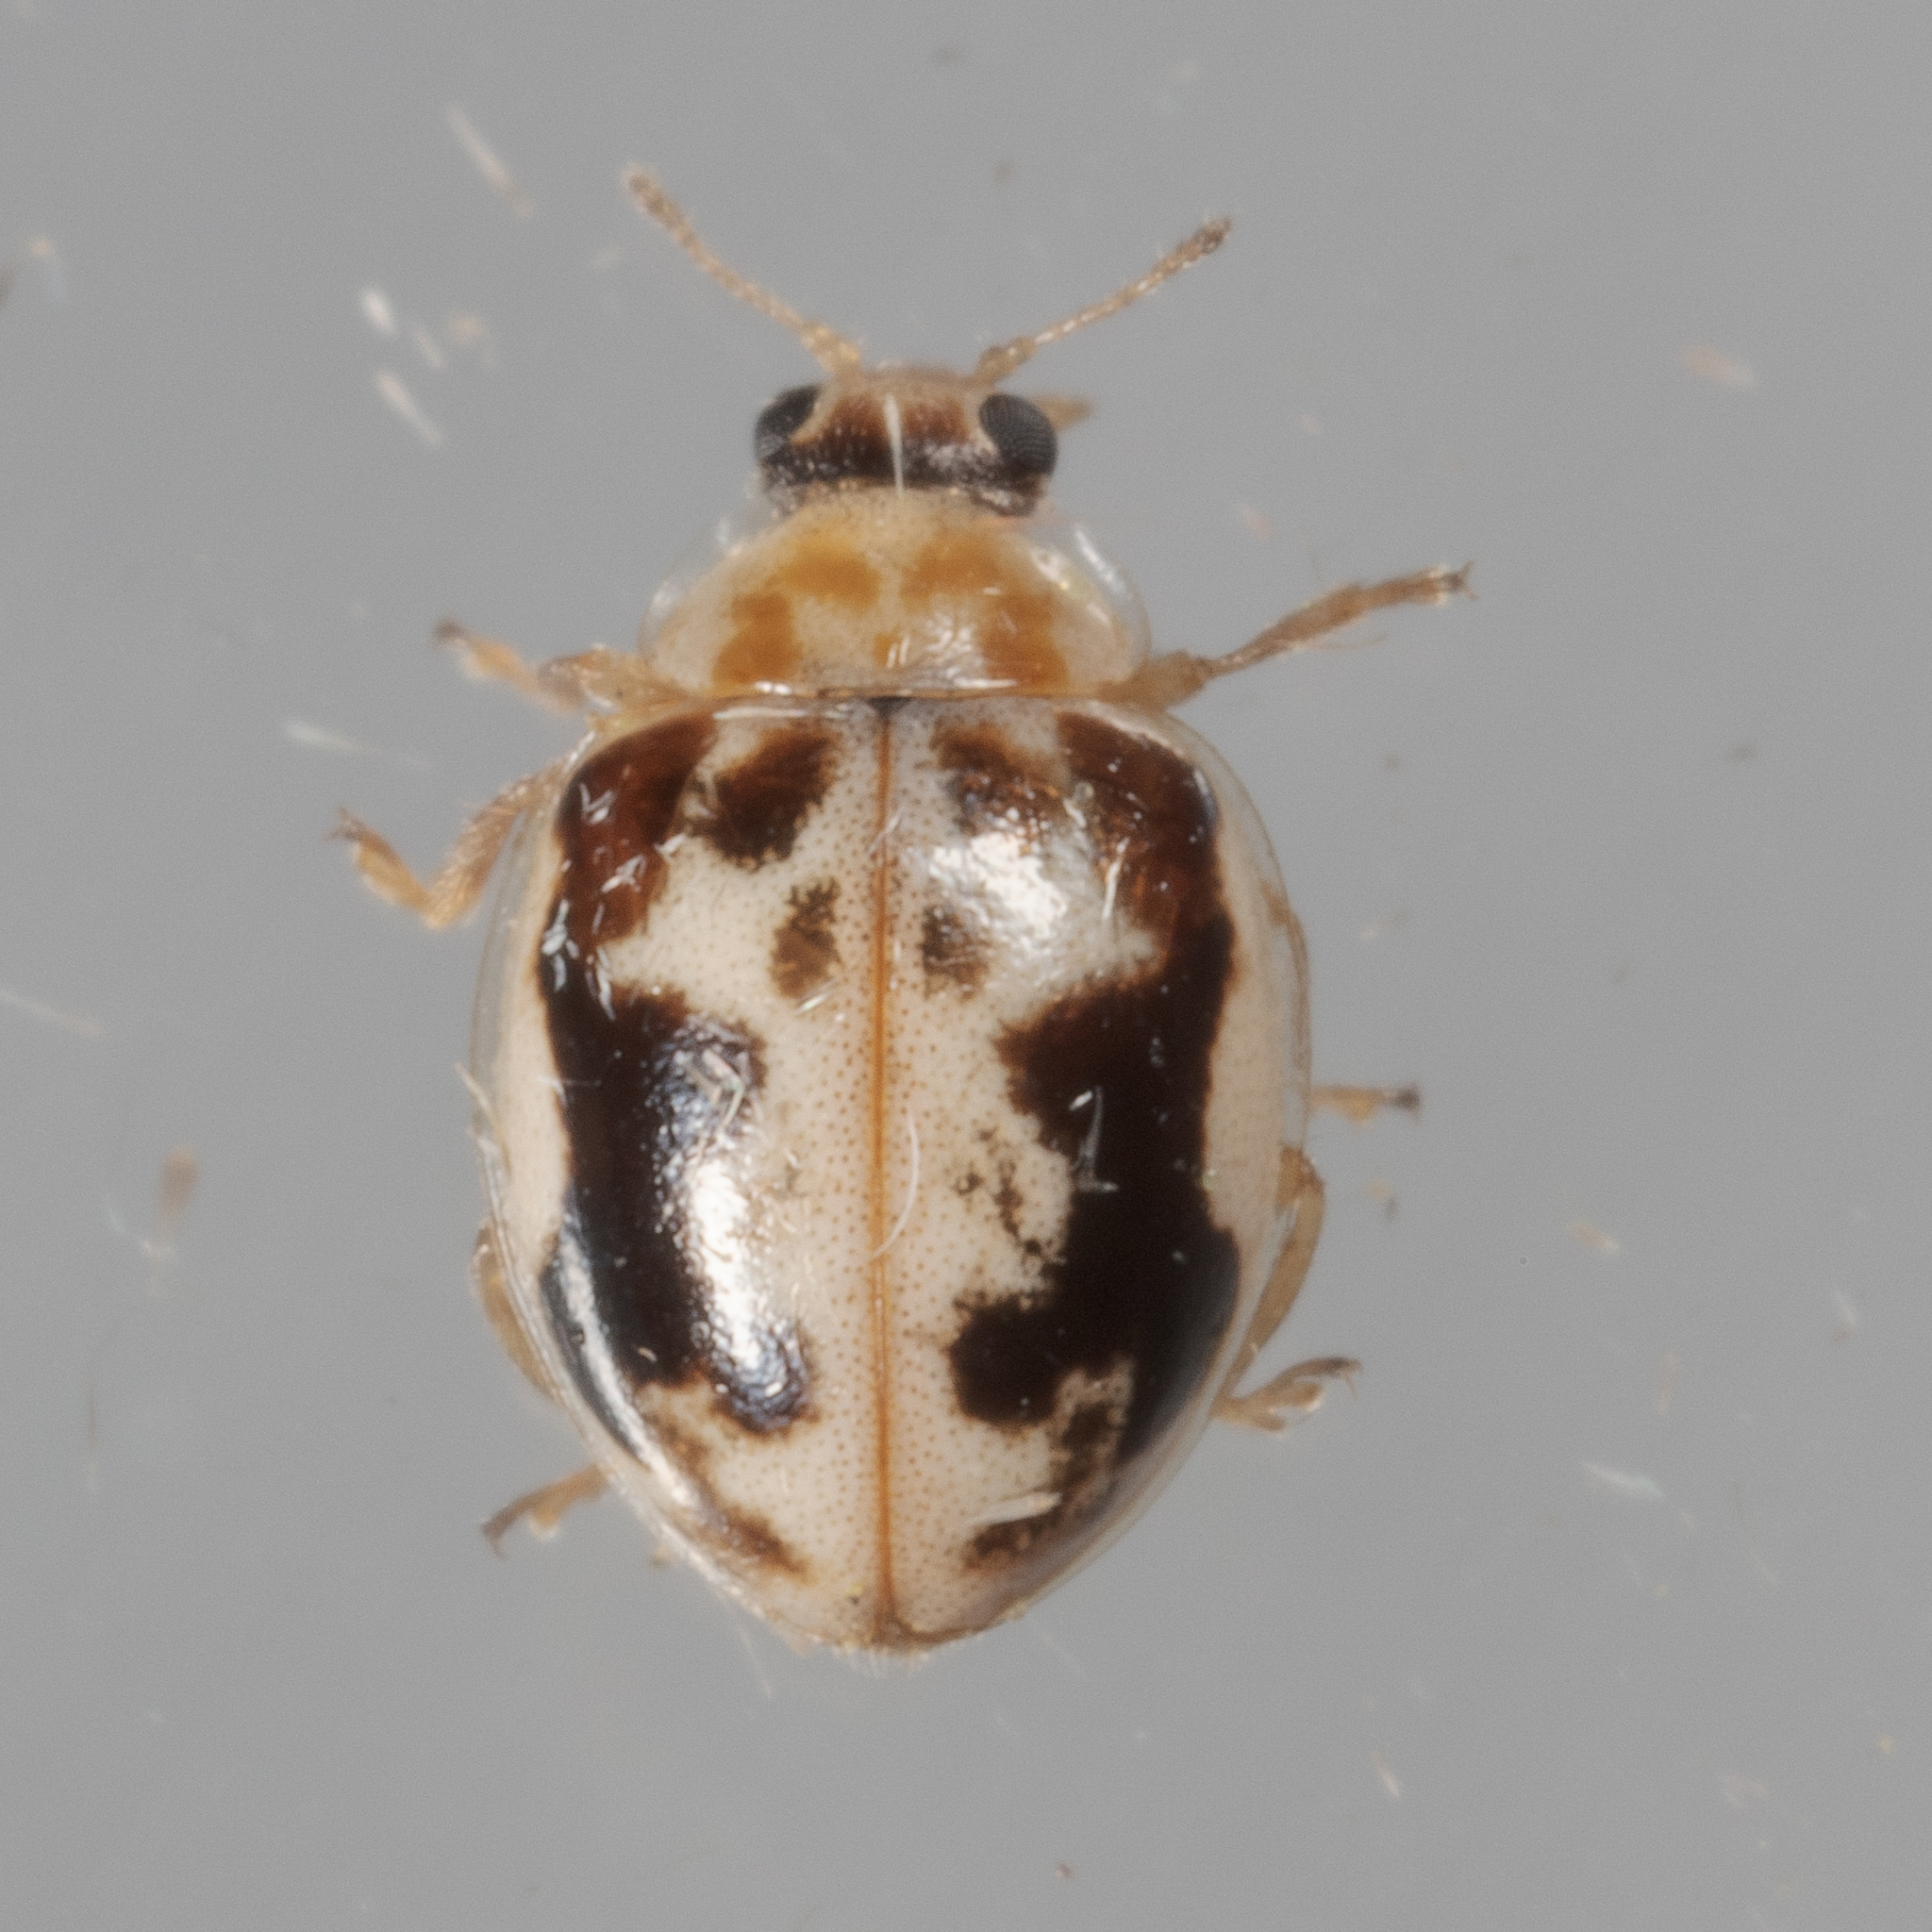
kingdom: Animalia
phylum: Arthropoda
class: Insecta
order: Coleoptera
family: Coccinellidae
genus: Psyllobora
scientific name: Psyllobora renifer
